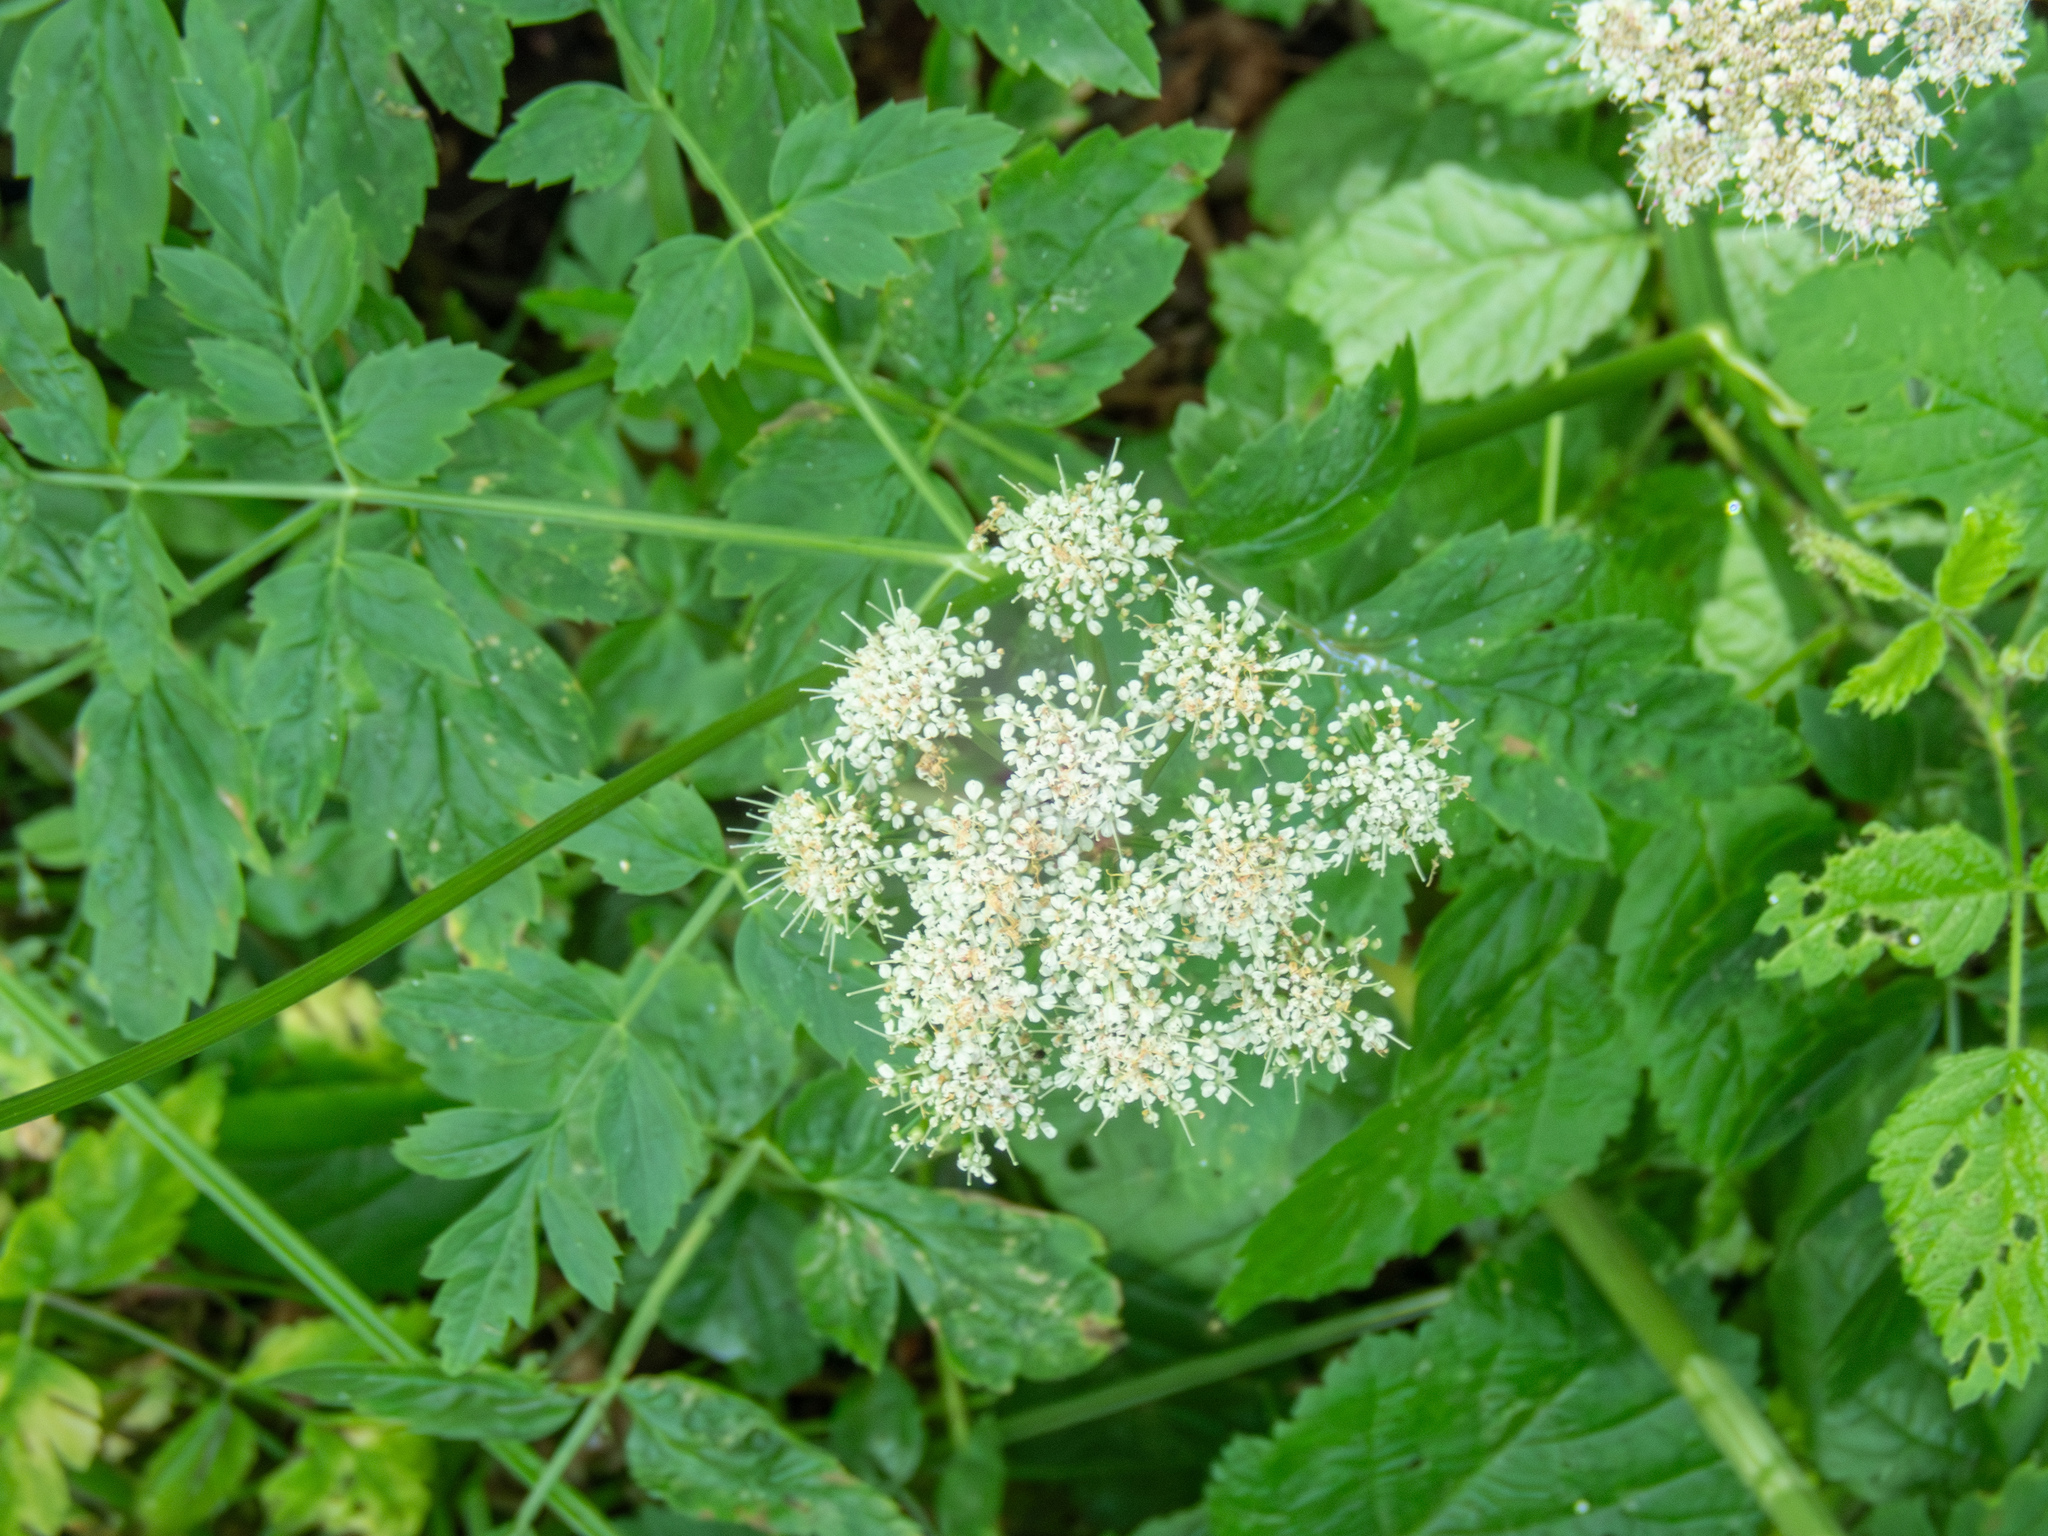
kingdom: Plantae
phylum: Tracheophyta
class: Magnoliopsida
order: Apiales
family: Apiaceae
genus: Oenanthe
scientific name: Oenanthe sarmentosa
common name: American water-parsley
